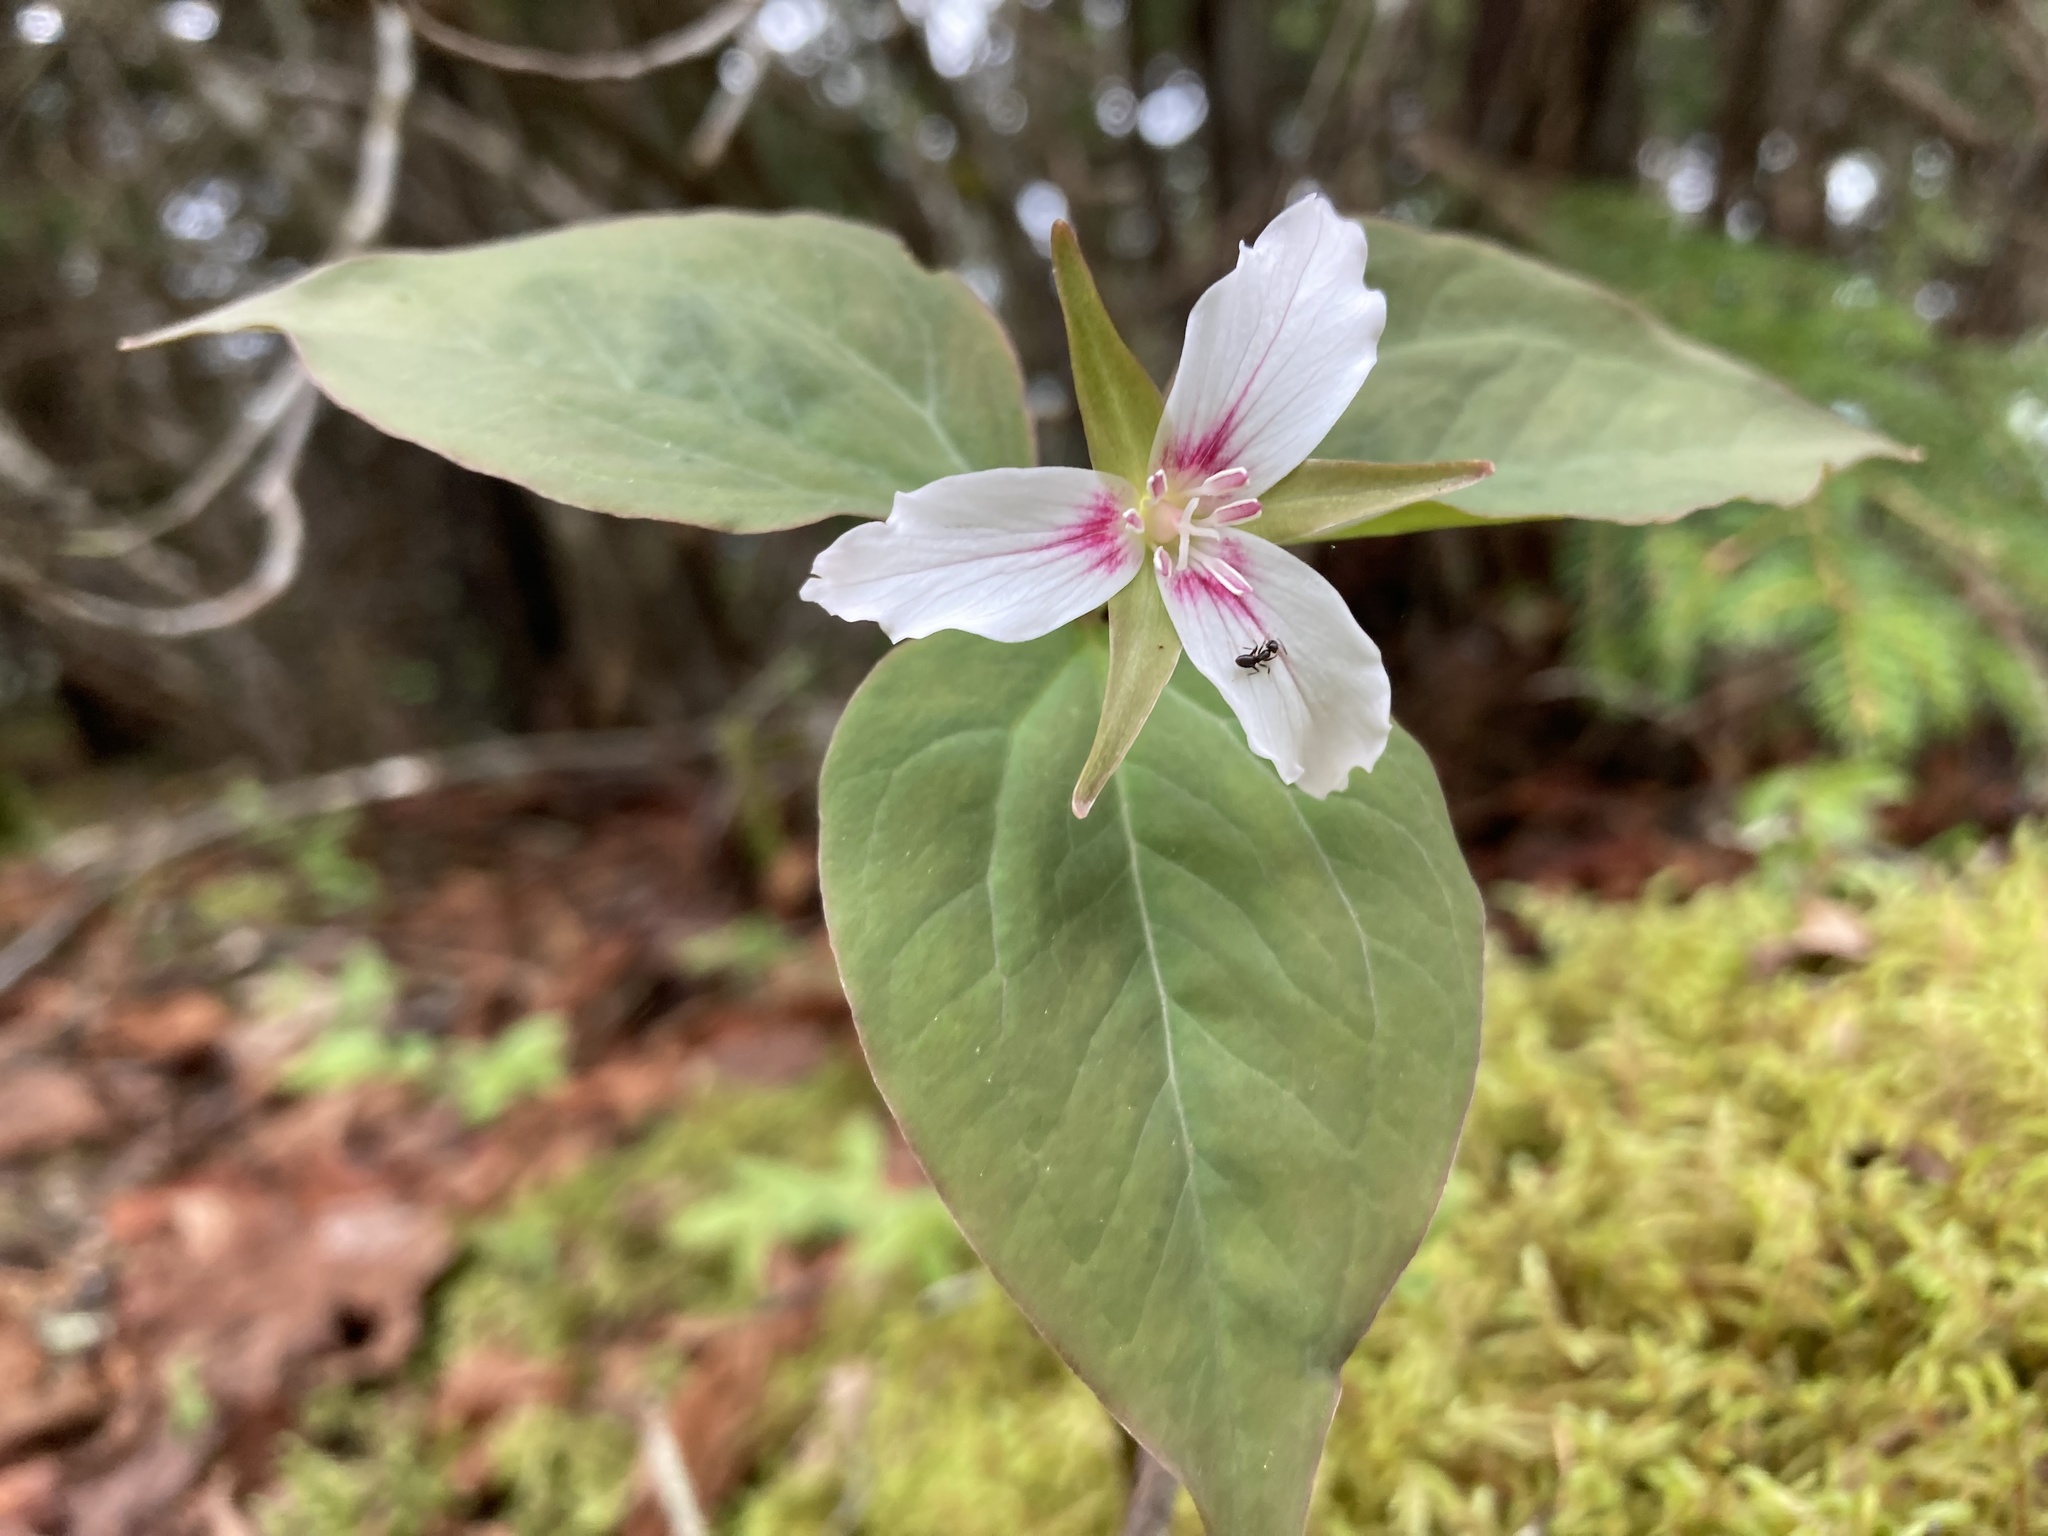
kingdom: Plantae
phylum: Tracheophyta
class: Liliopsida
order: Liliales
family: Melanthiaceae
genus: Trillium
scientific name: Trillium undulatum
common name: Paint trillium
